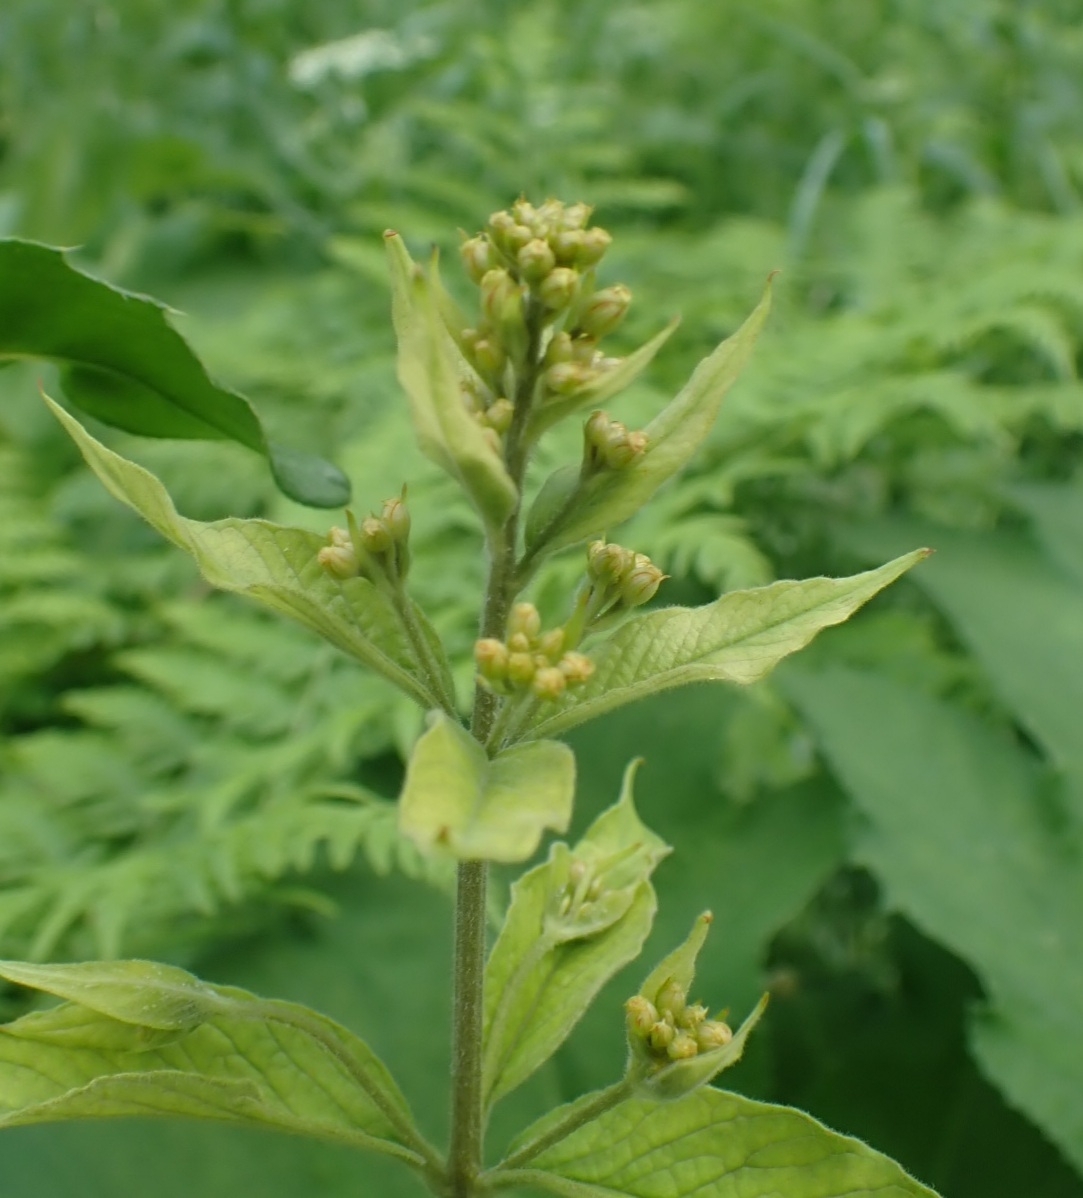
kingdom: Plantae
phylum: Tracheophyta
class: Magnoliopsida
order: Ericales
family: Primulaceae
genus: Lysimachia
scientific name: Lysimachia vulgaris
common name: Yellow loosestrife
